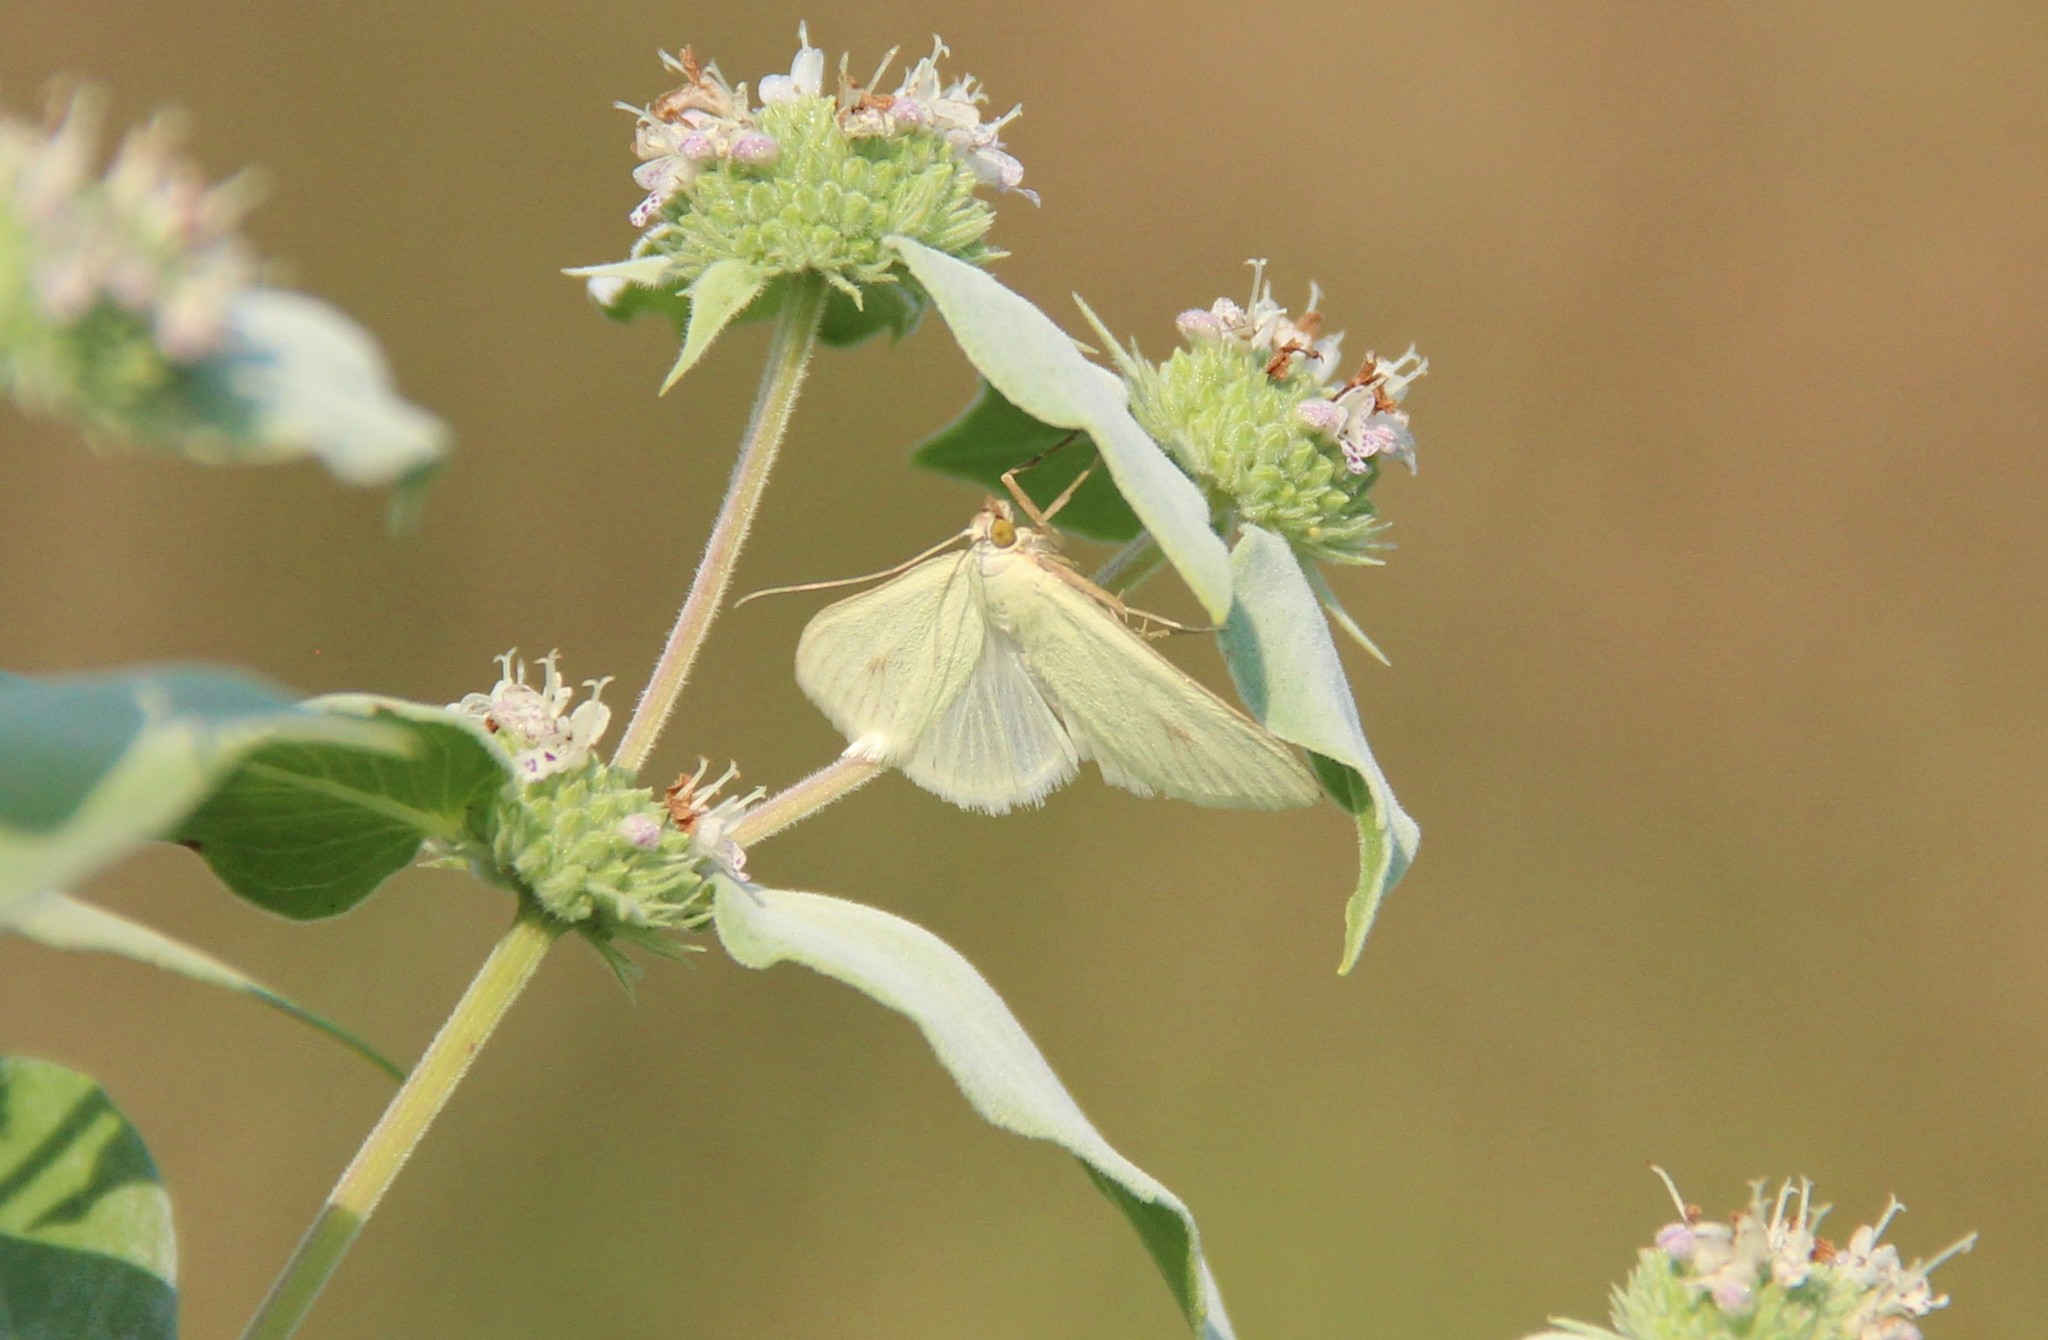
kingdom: Animalia
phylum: Arthropoda
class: Insecta
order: Lepidoptera
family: Crambidae
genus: Sitochroa
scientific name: Sitochroa palealis
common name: Greenish-yellow sitochroa moth
